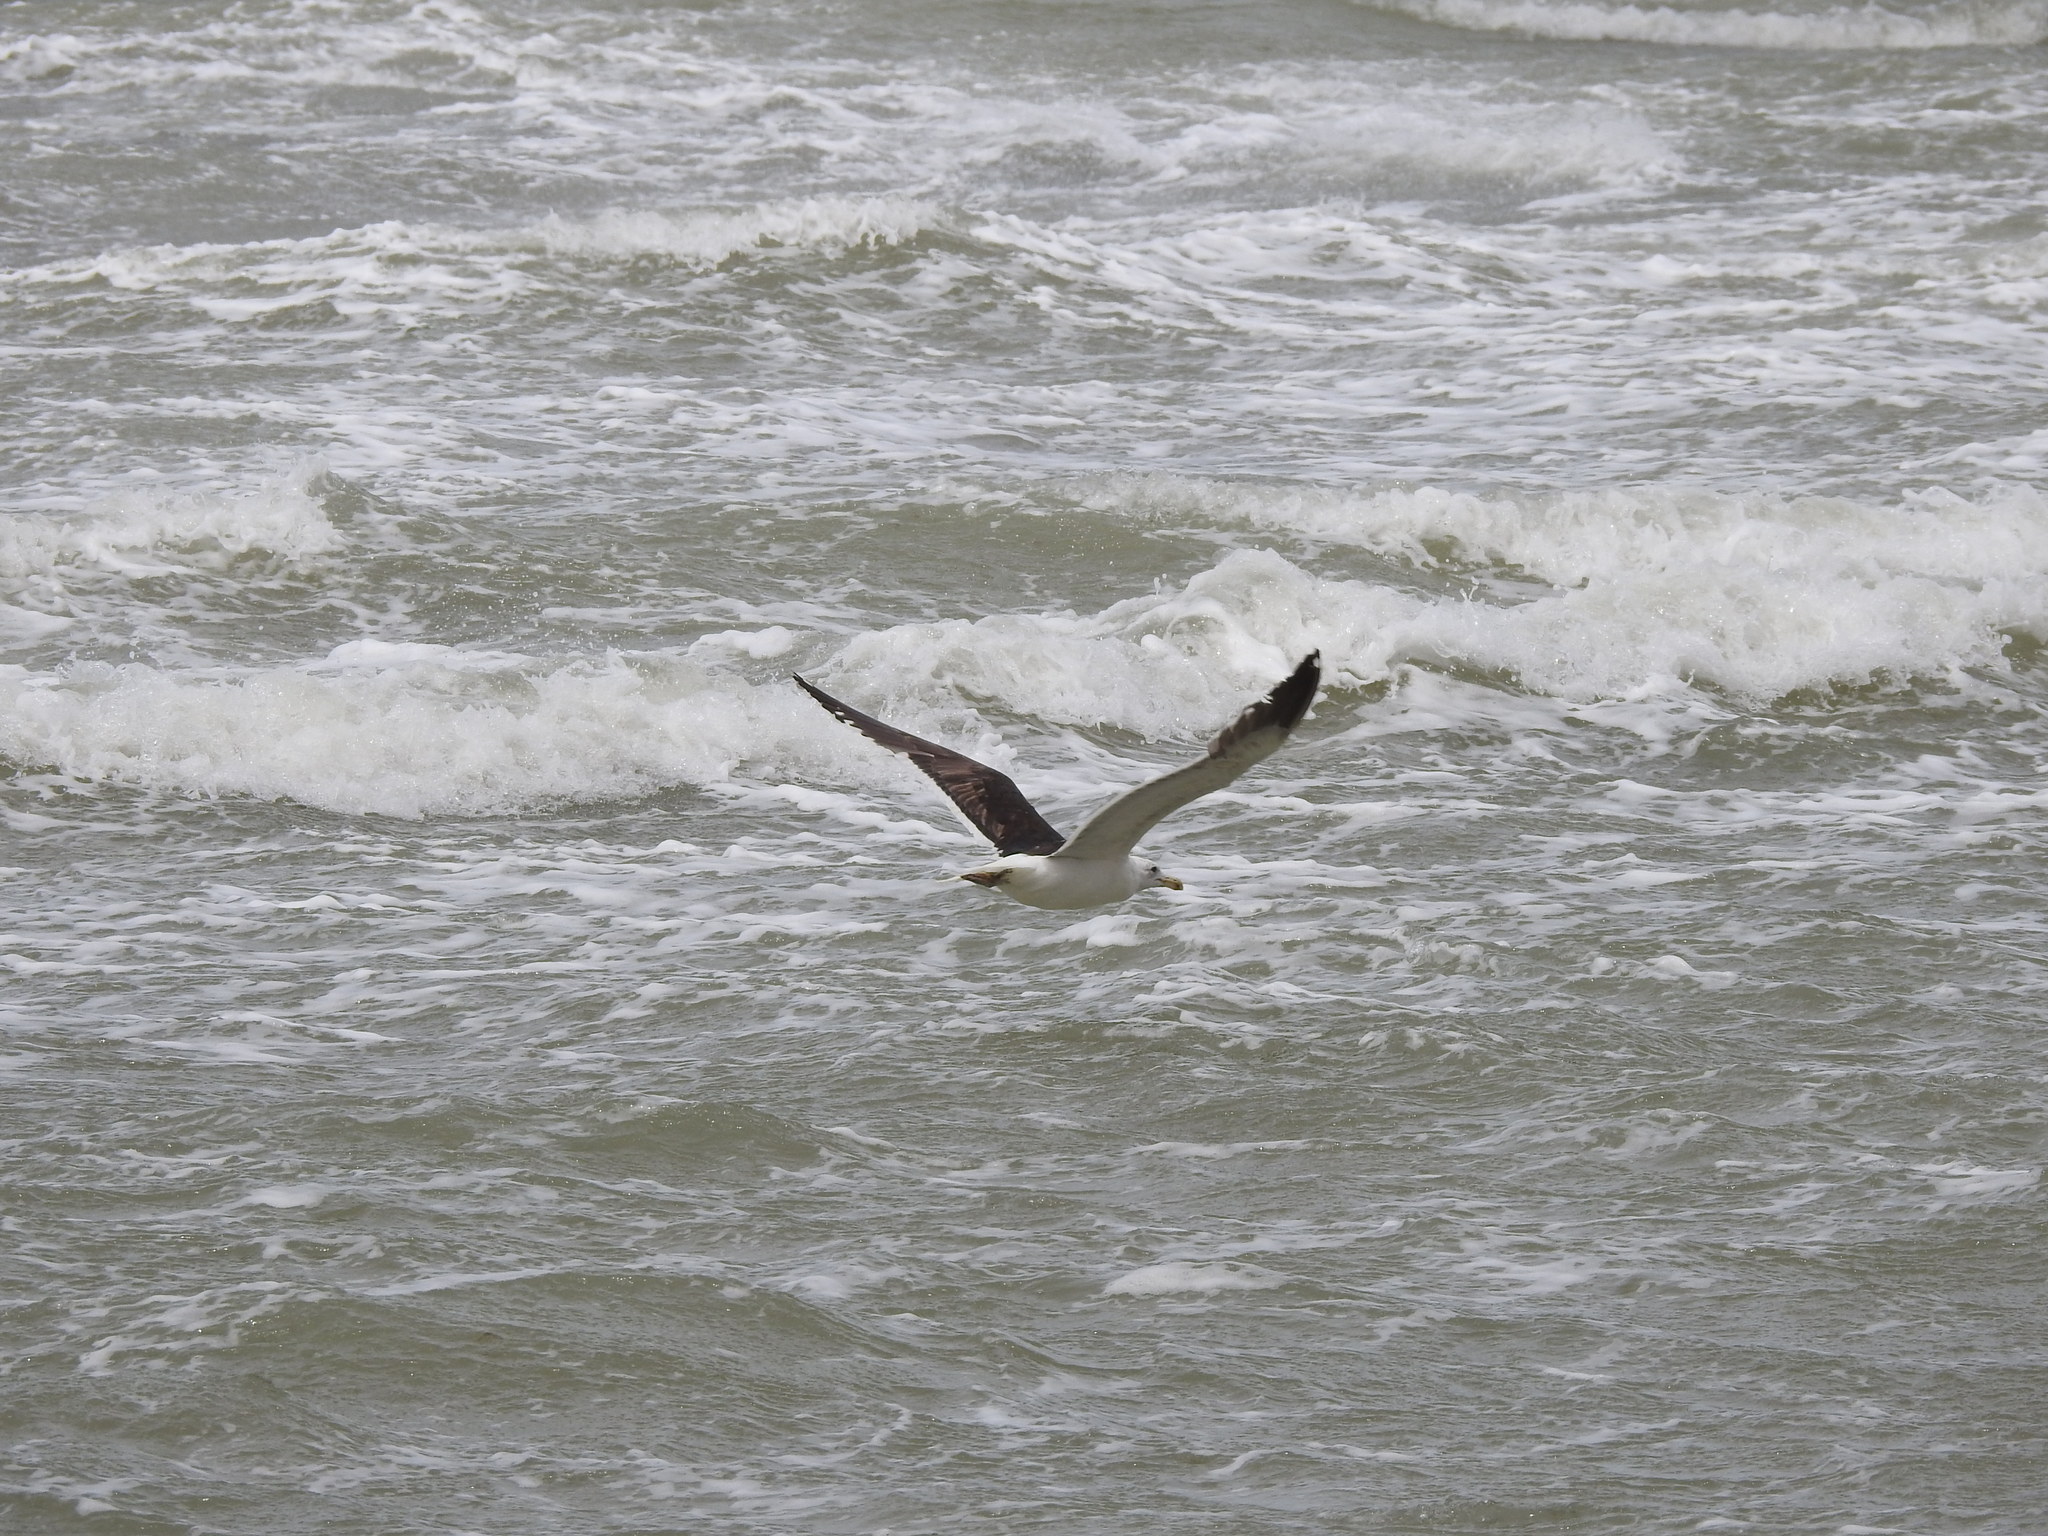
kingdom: Animalia
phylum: Chordata
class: Aves
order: Charadriiformes
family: Laridae
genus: Larus
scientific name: Larus dominicanus
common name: Kelp gull
